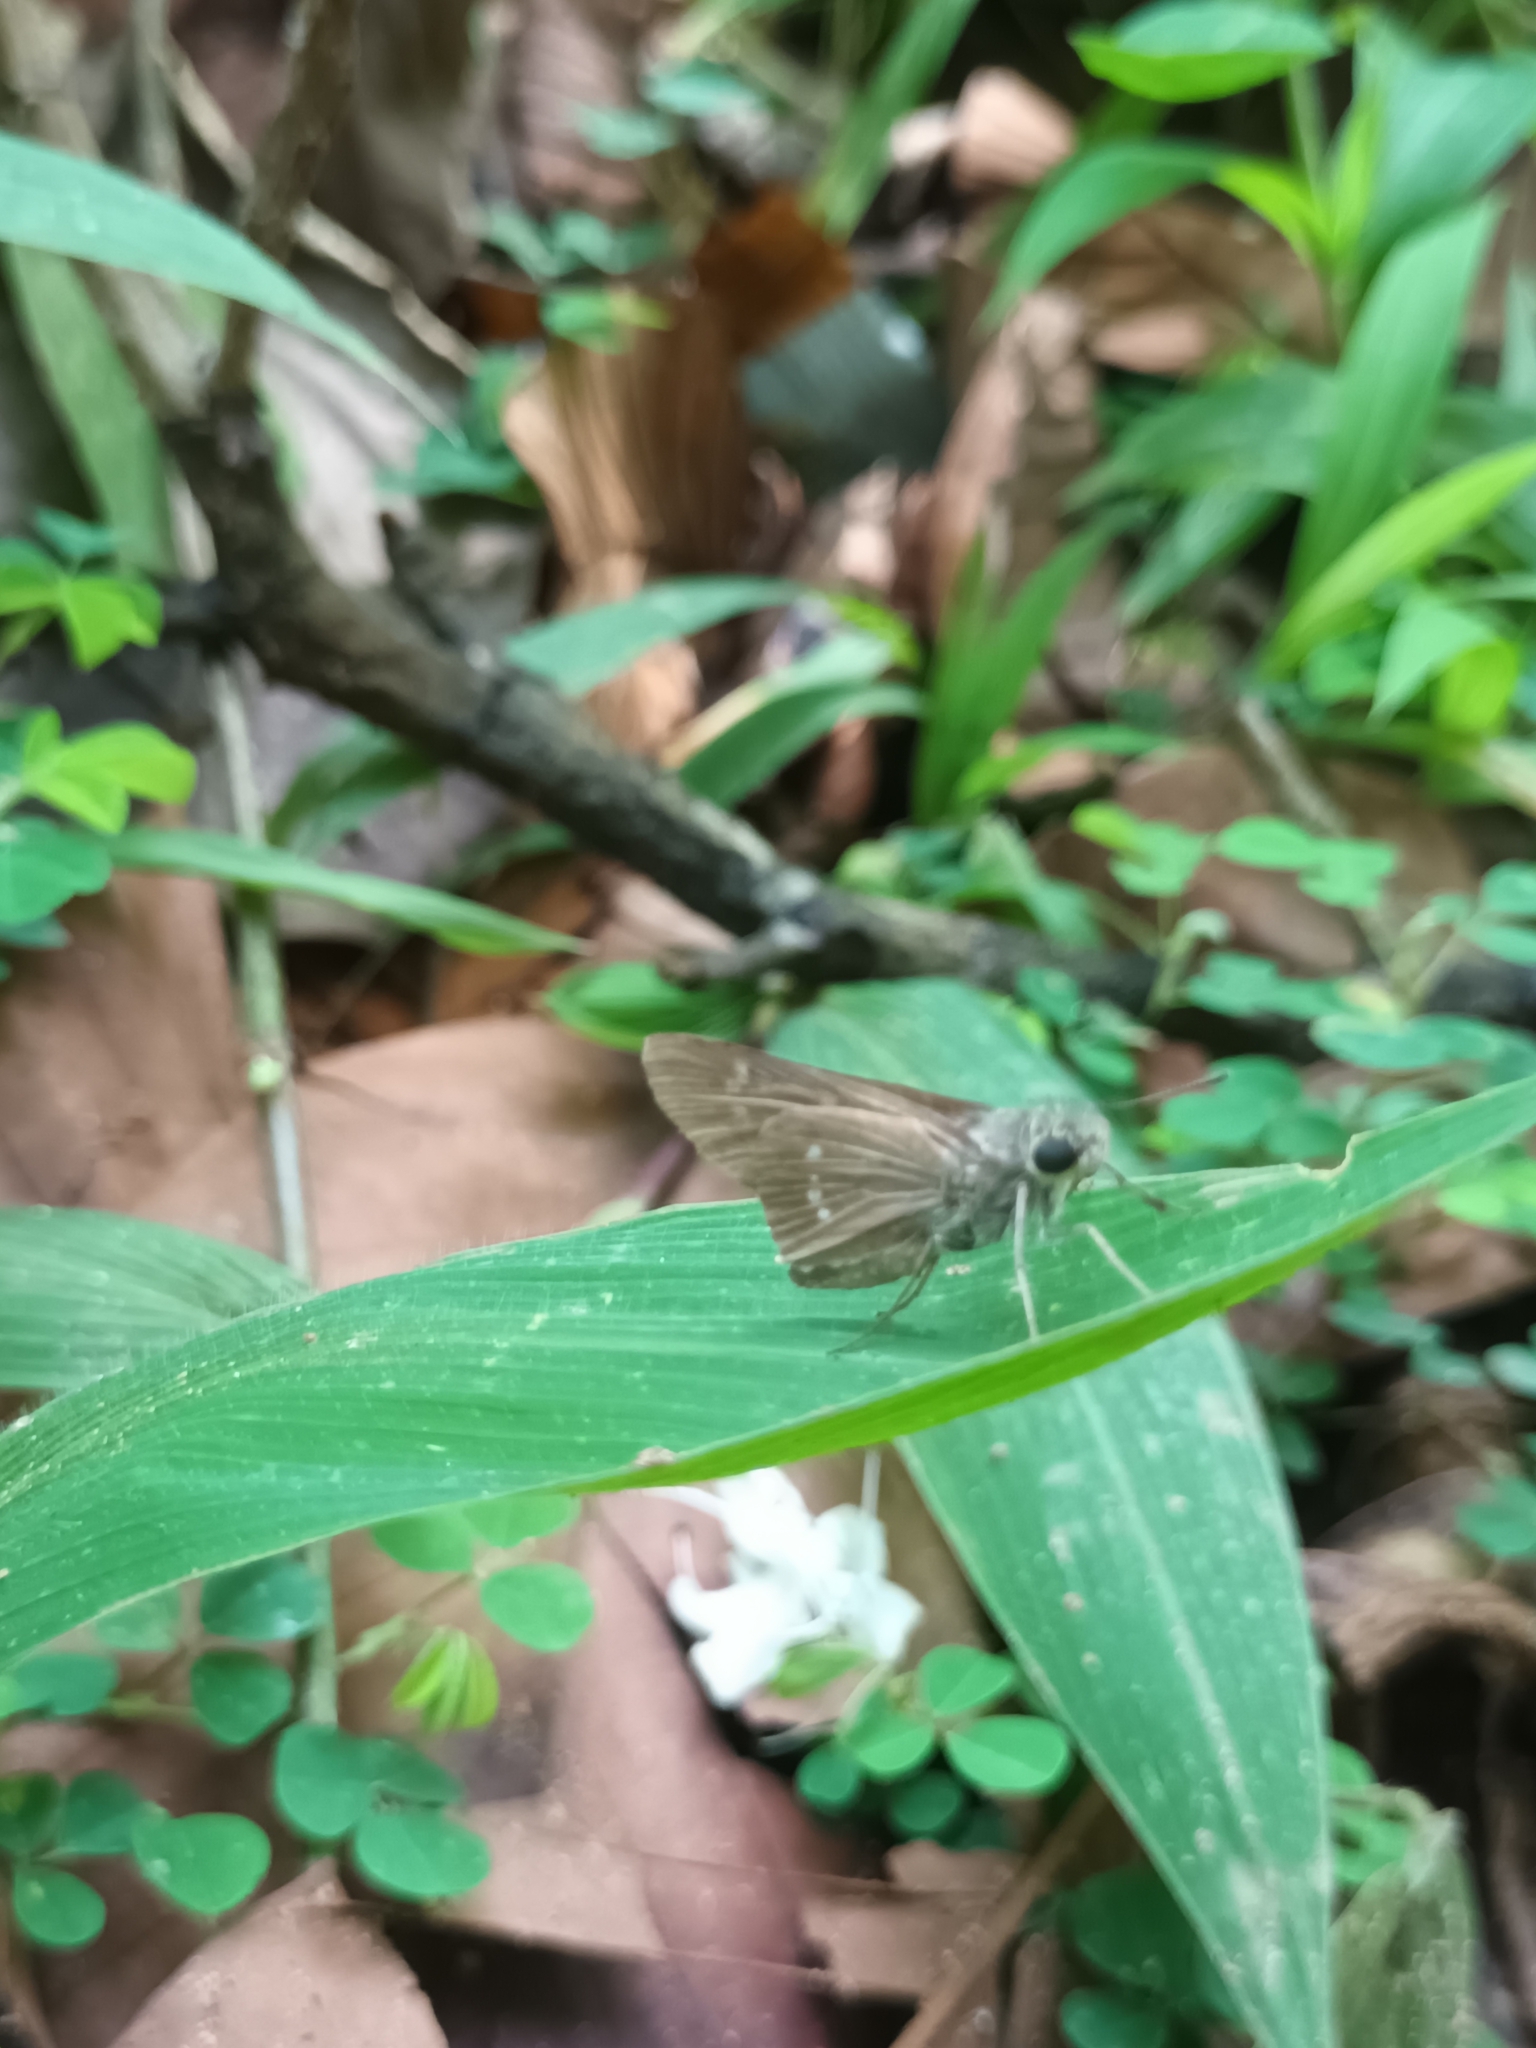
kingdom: Animalia
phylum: Arthropoda
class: Insecta
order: Lepidoptera
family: Hesperiidae
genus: Borbo
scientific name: Borbo cinnara
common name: Formosan swift
